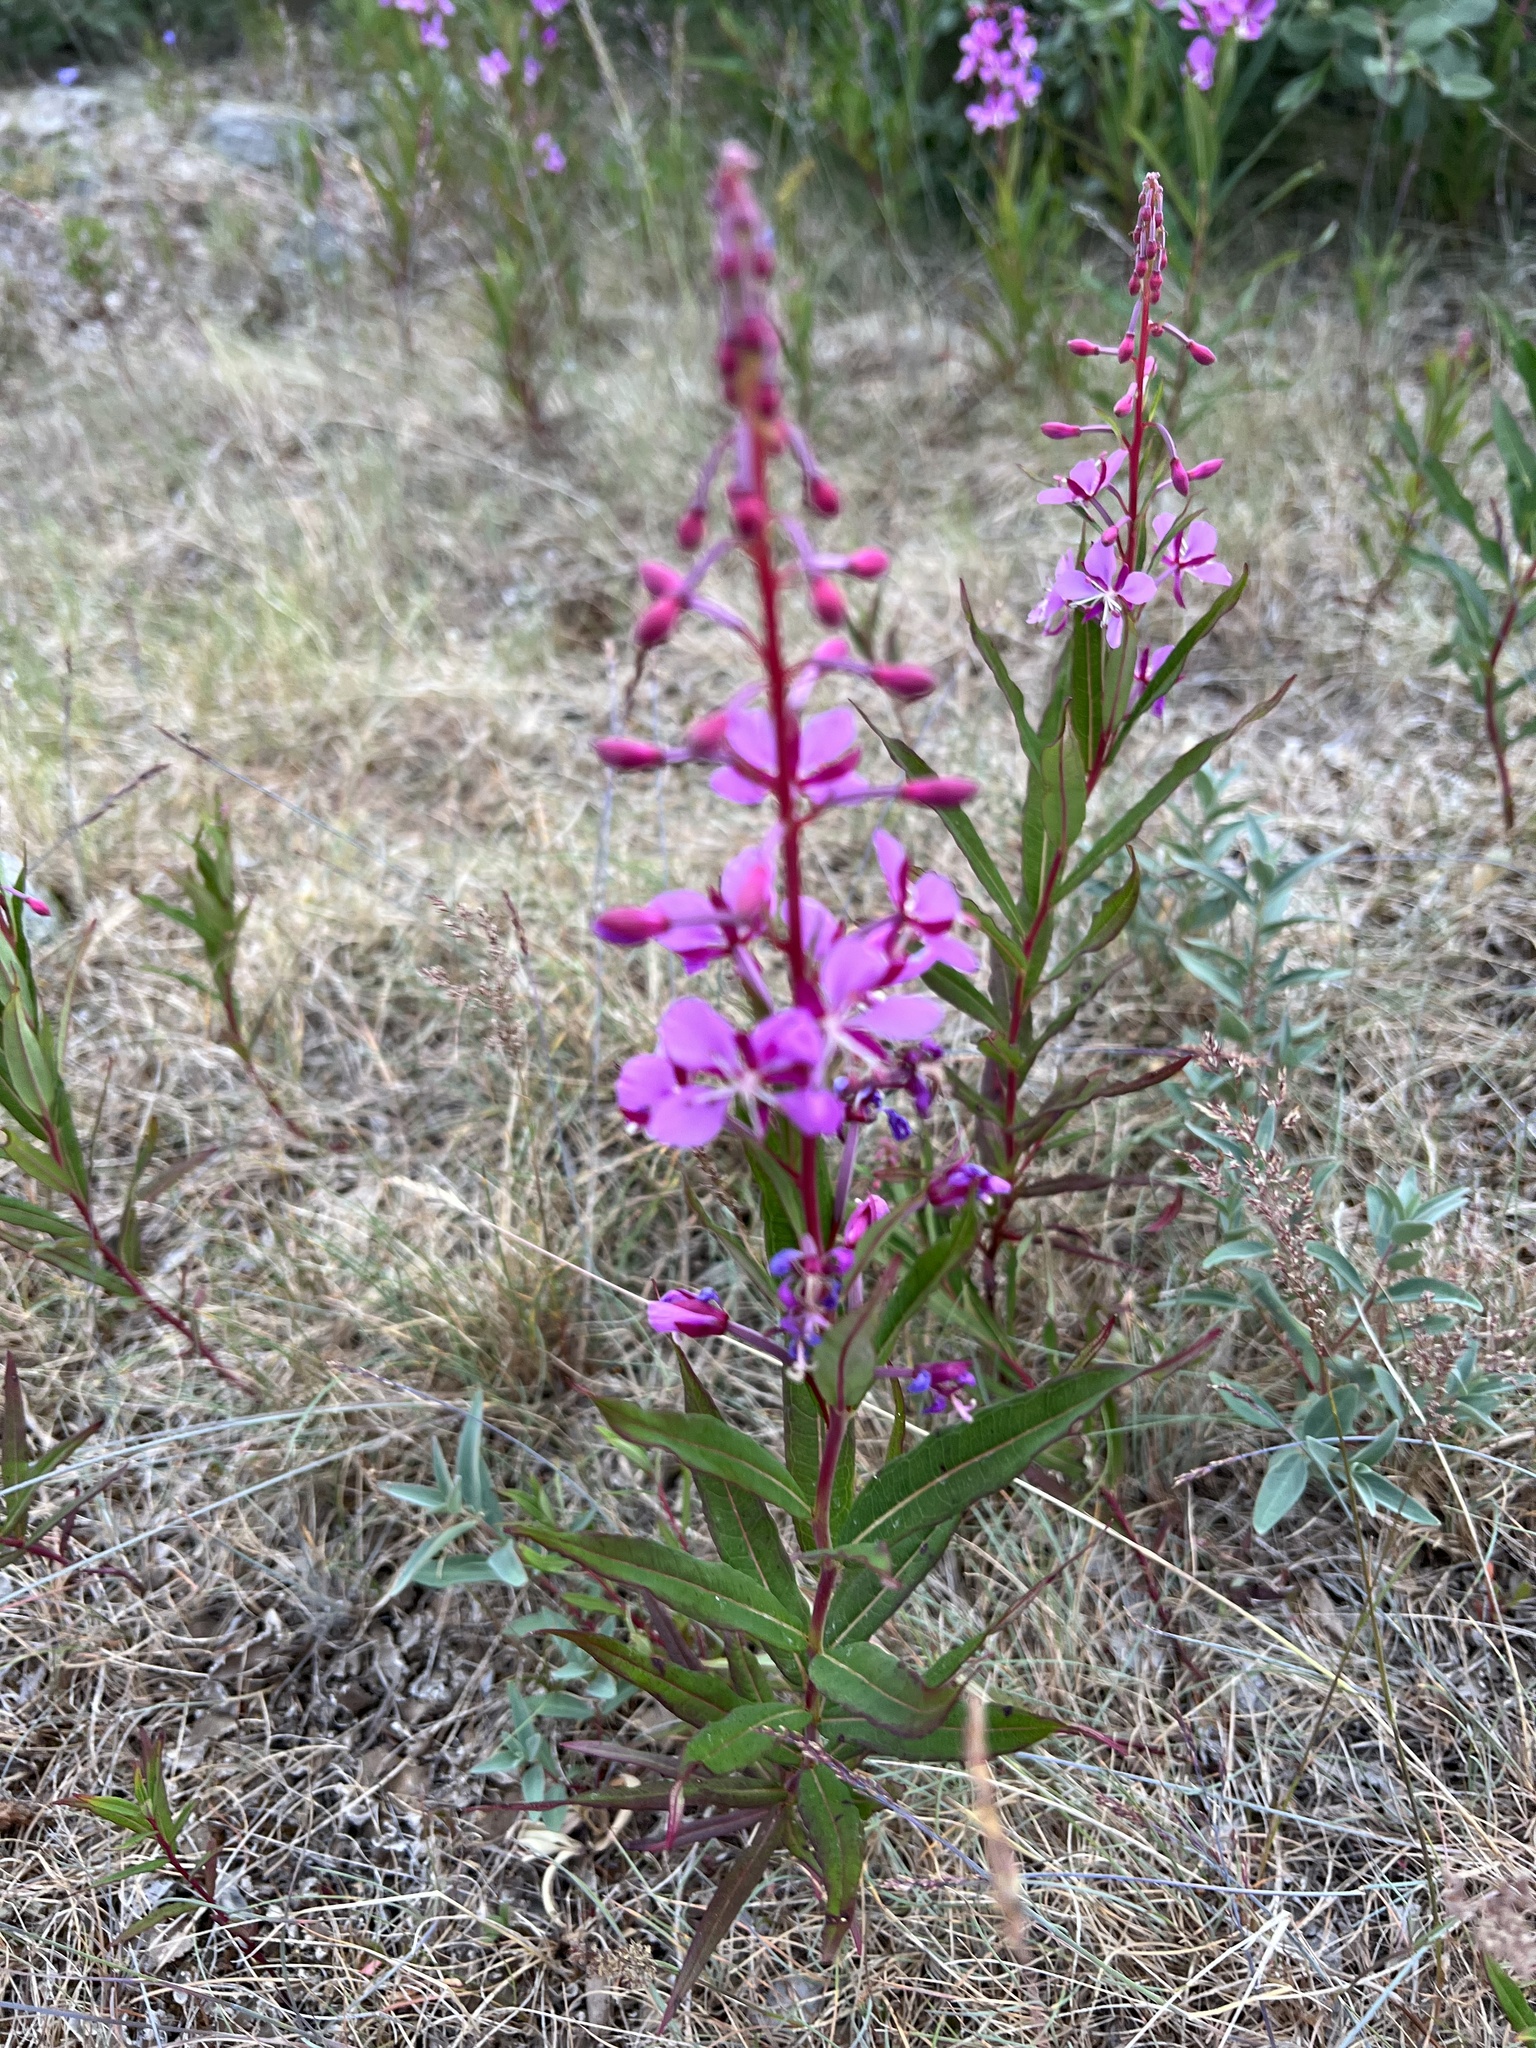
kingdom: Plantae
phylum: Tracheophyta
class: Magnoliopsida
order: Myrtales
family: Onagraceae
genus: Chamaenerion
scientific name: Chamaenerion angustifolium
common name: Fireweed
